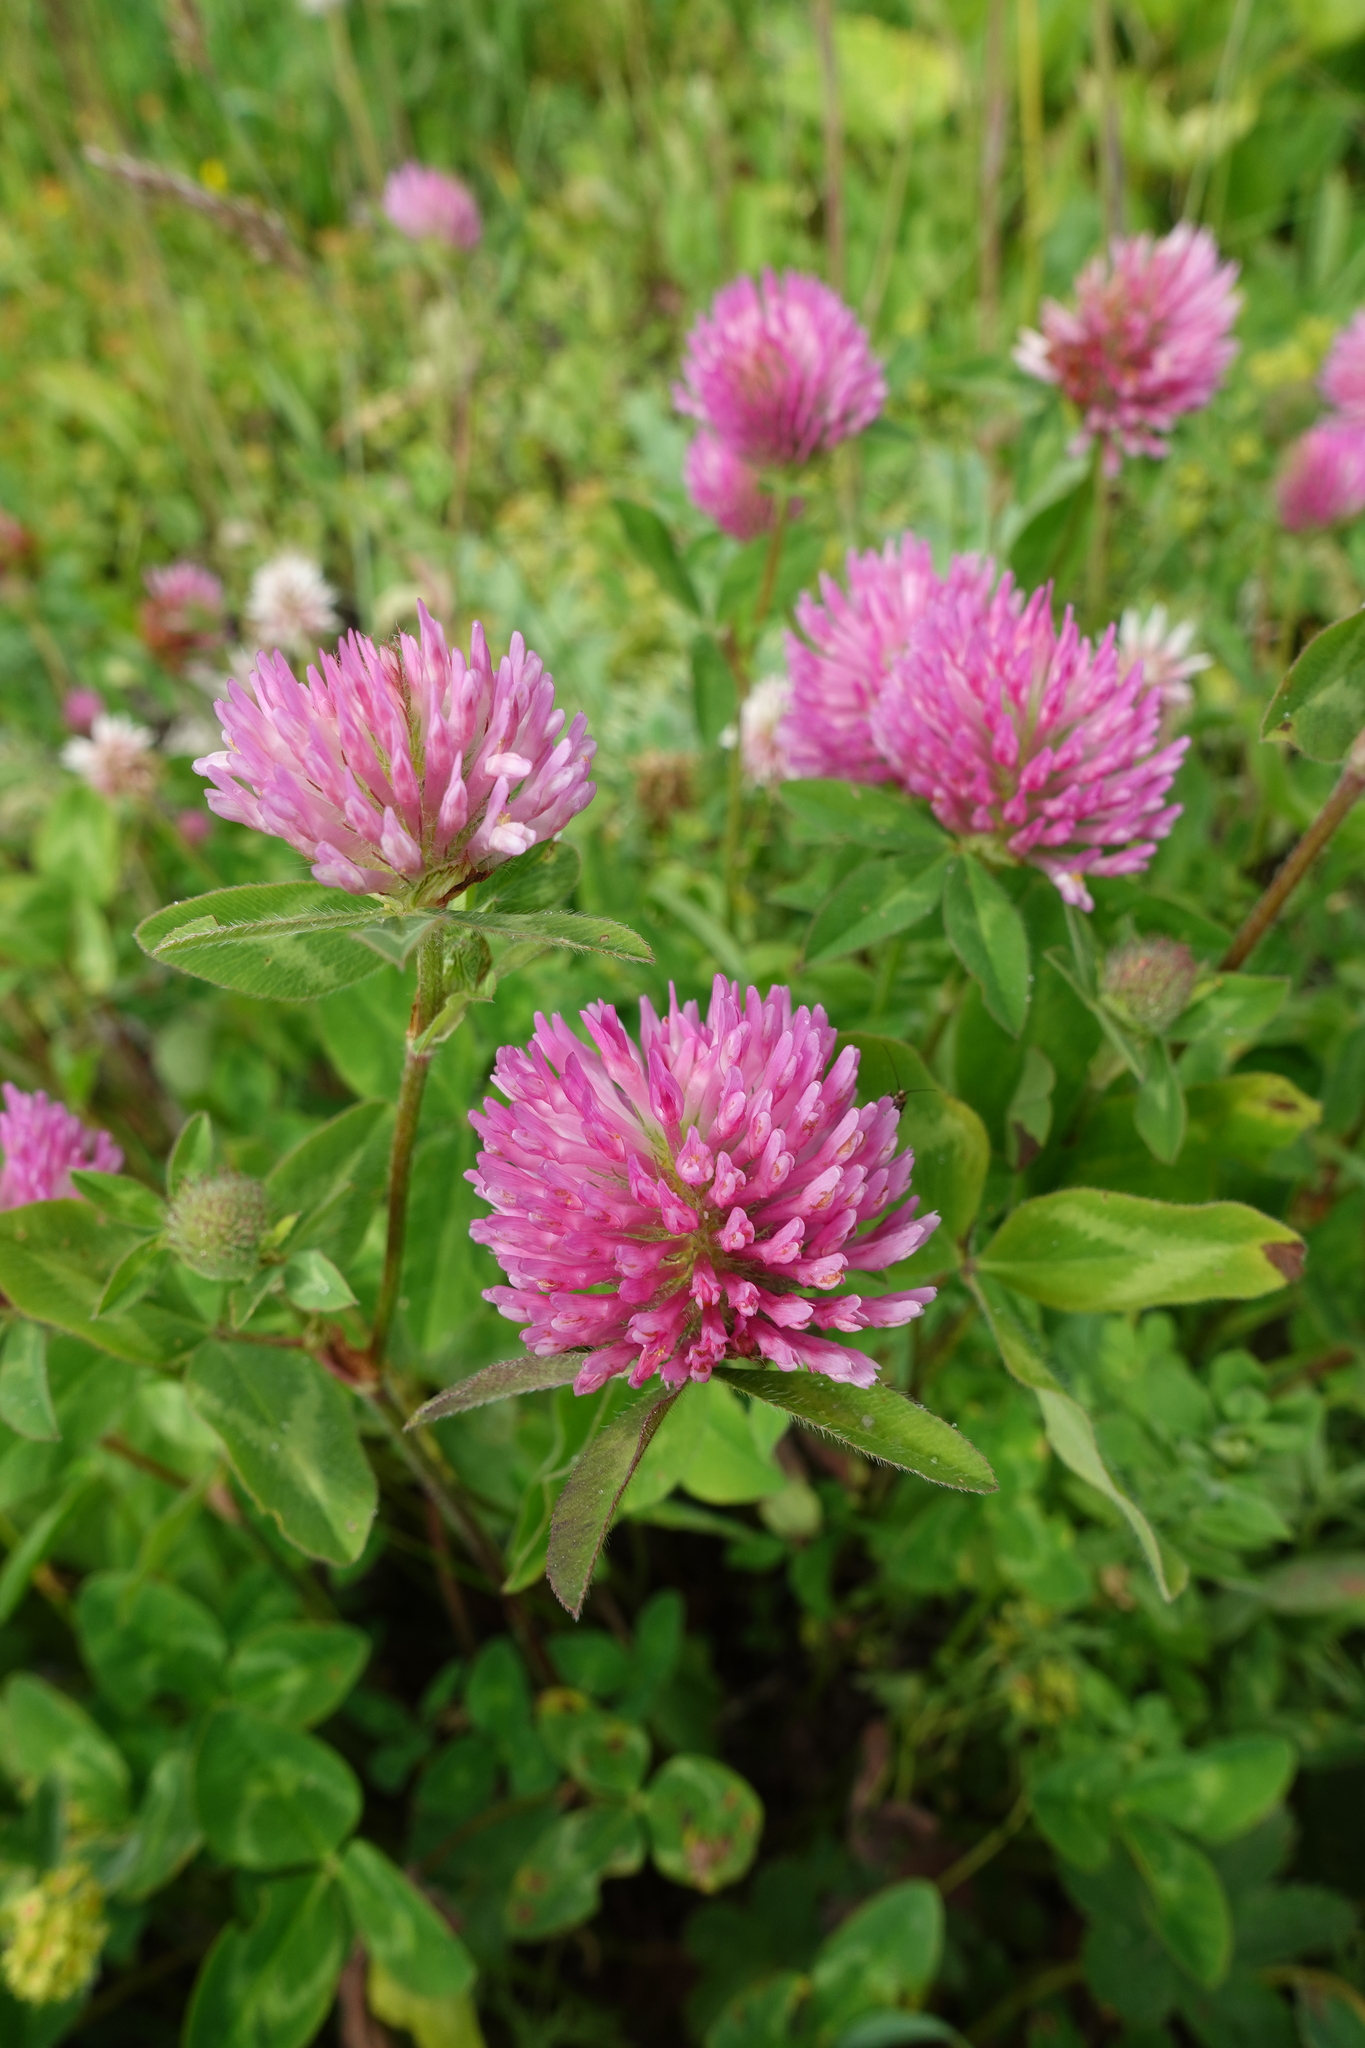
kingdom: Plantae
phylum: Tracheophyta
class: Magnoliopsida
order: Fabales
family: Fabaceae
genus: Trifolium
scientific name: Trifolium pratense
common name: Red clover
